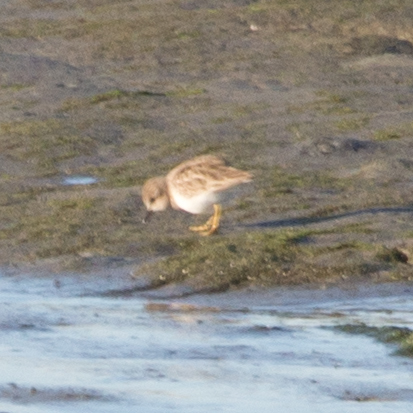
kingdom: Animalia
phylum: Chordata
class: Aves
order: Charadriiformes
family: Scolopacidae
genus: Calidris
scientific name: Calidris minutilla
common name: Least sandpiper
